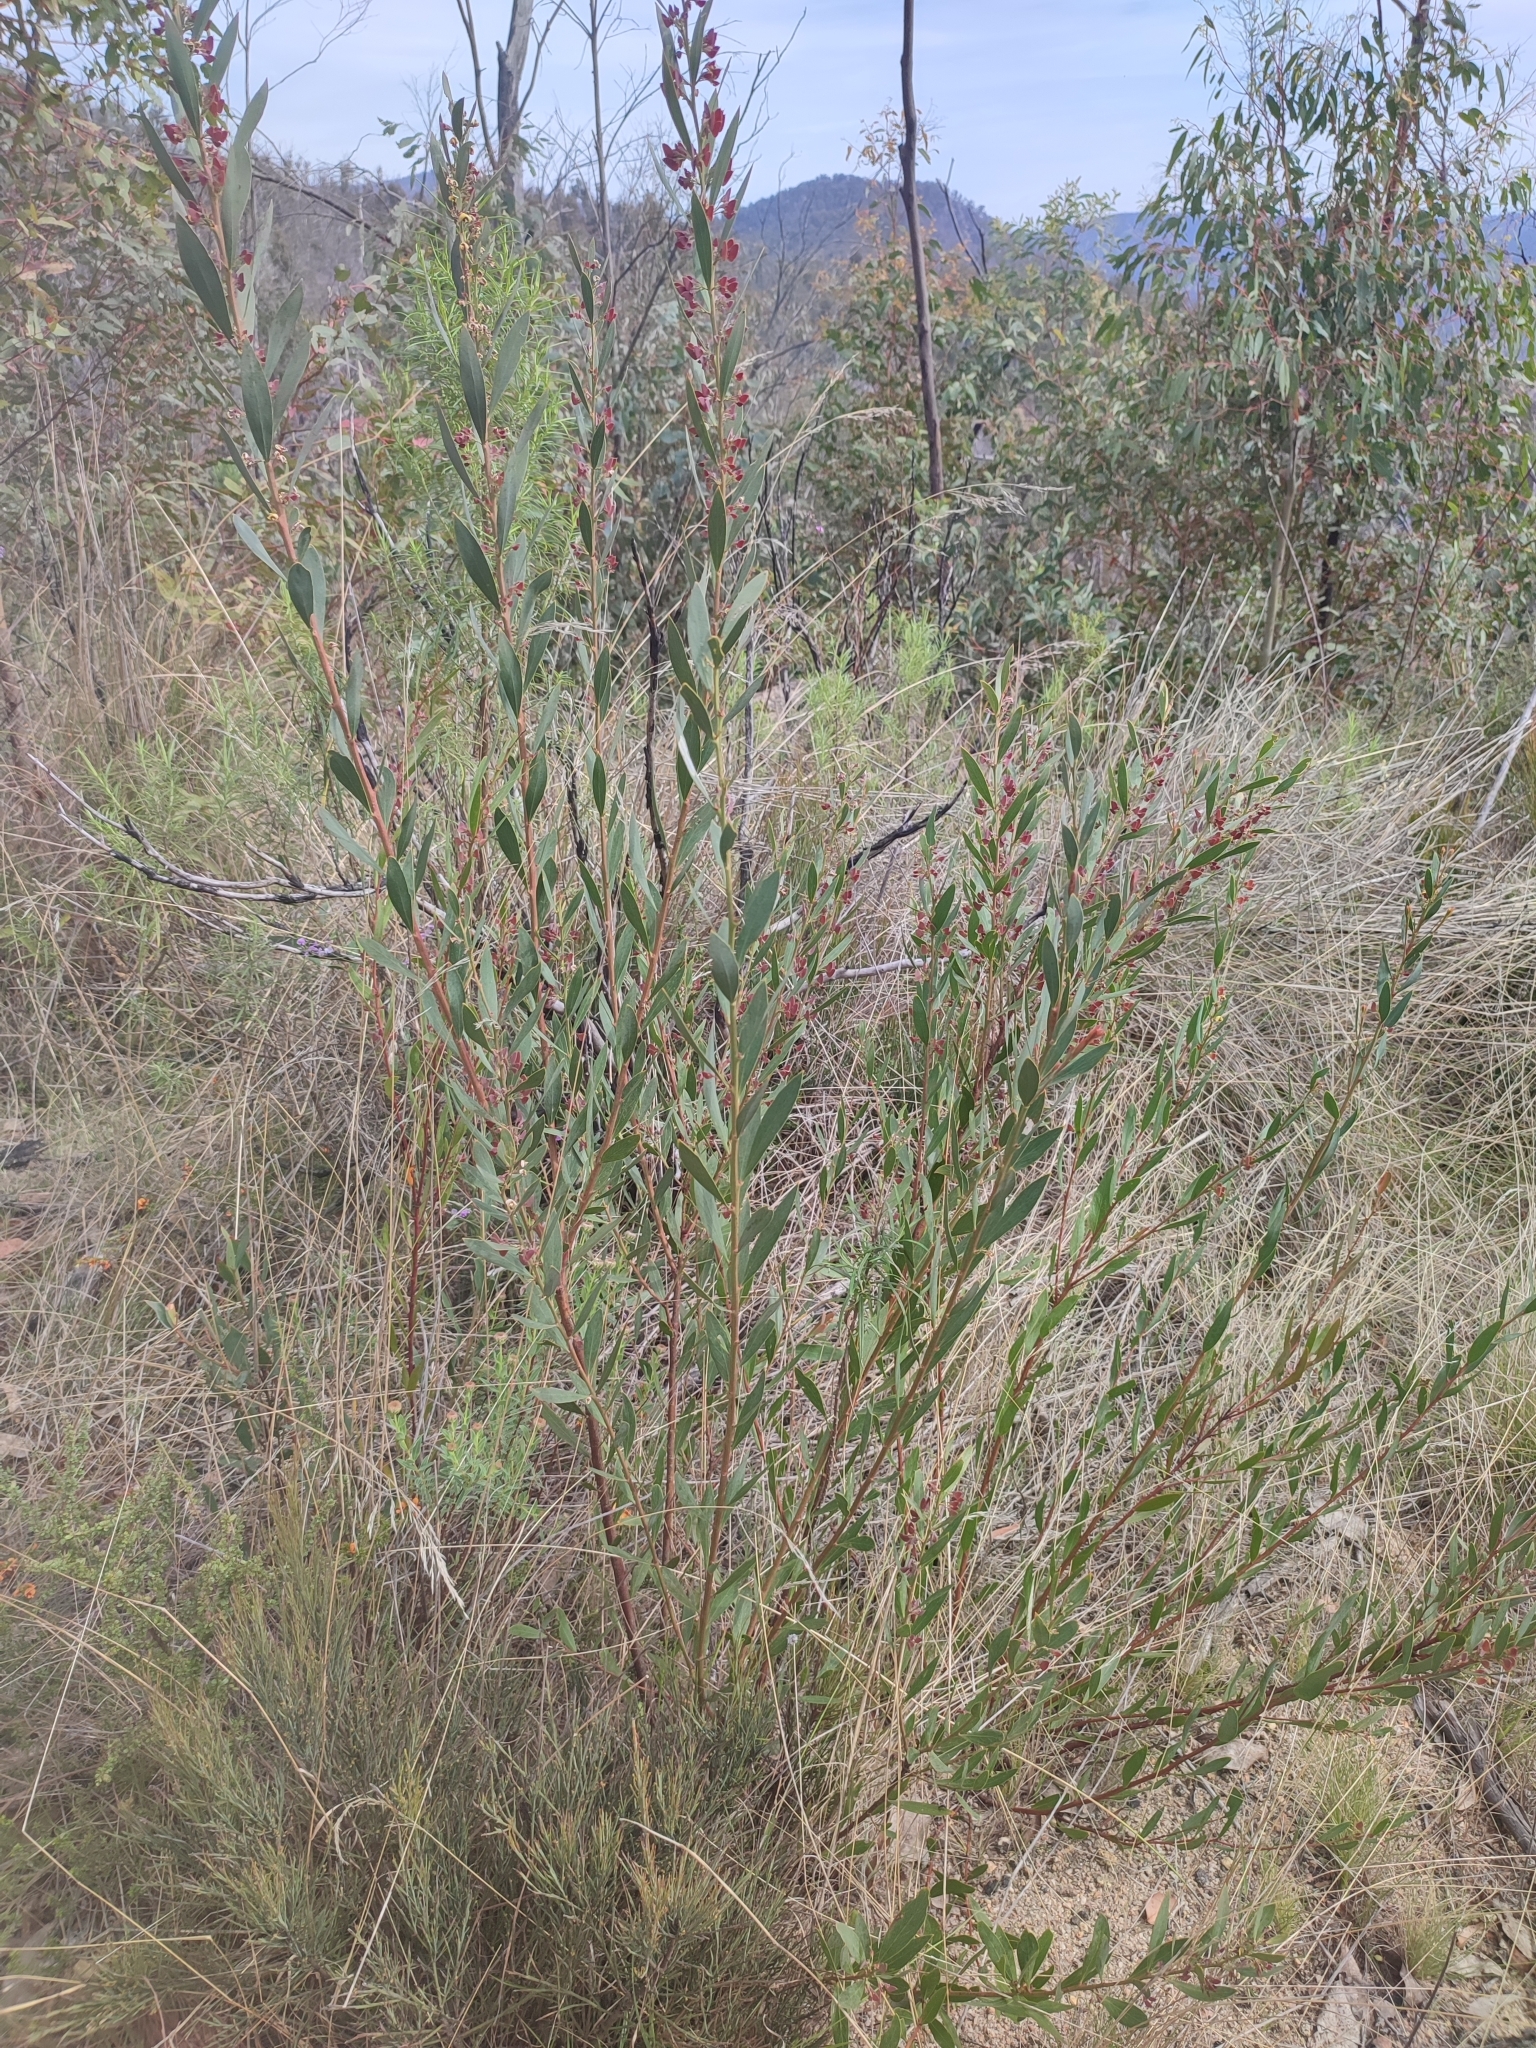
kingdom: Plantae
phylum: Tracheophyta
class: Magnoliopsida
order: Fabales
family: Fabaceae
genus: Daviesia
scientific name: Daviesia mimosoides
